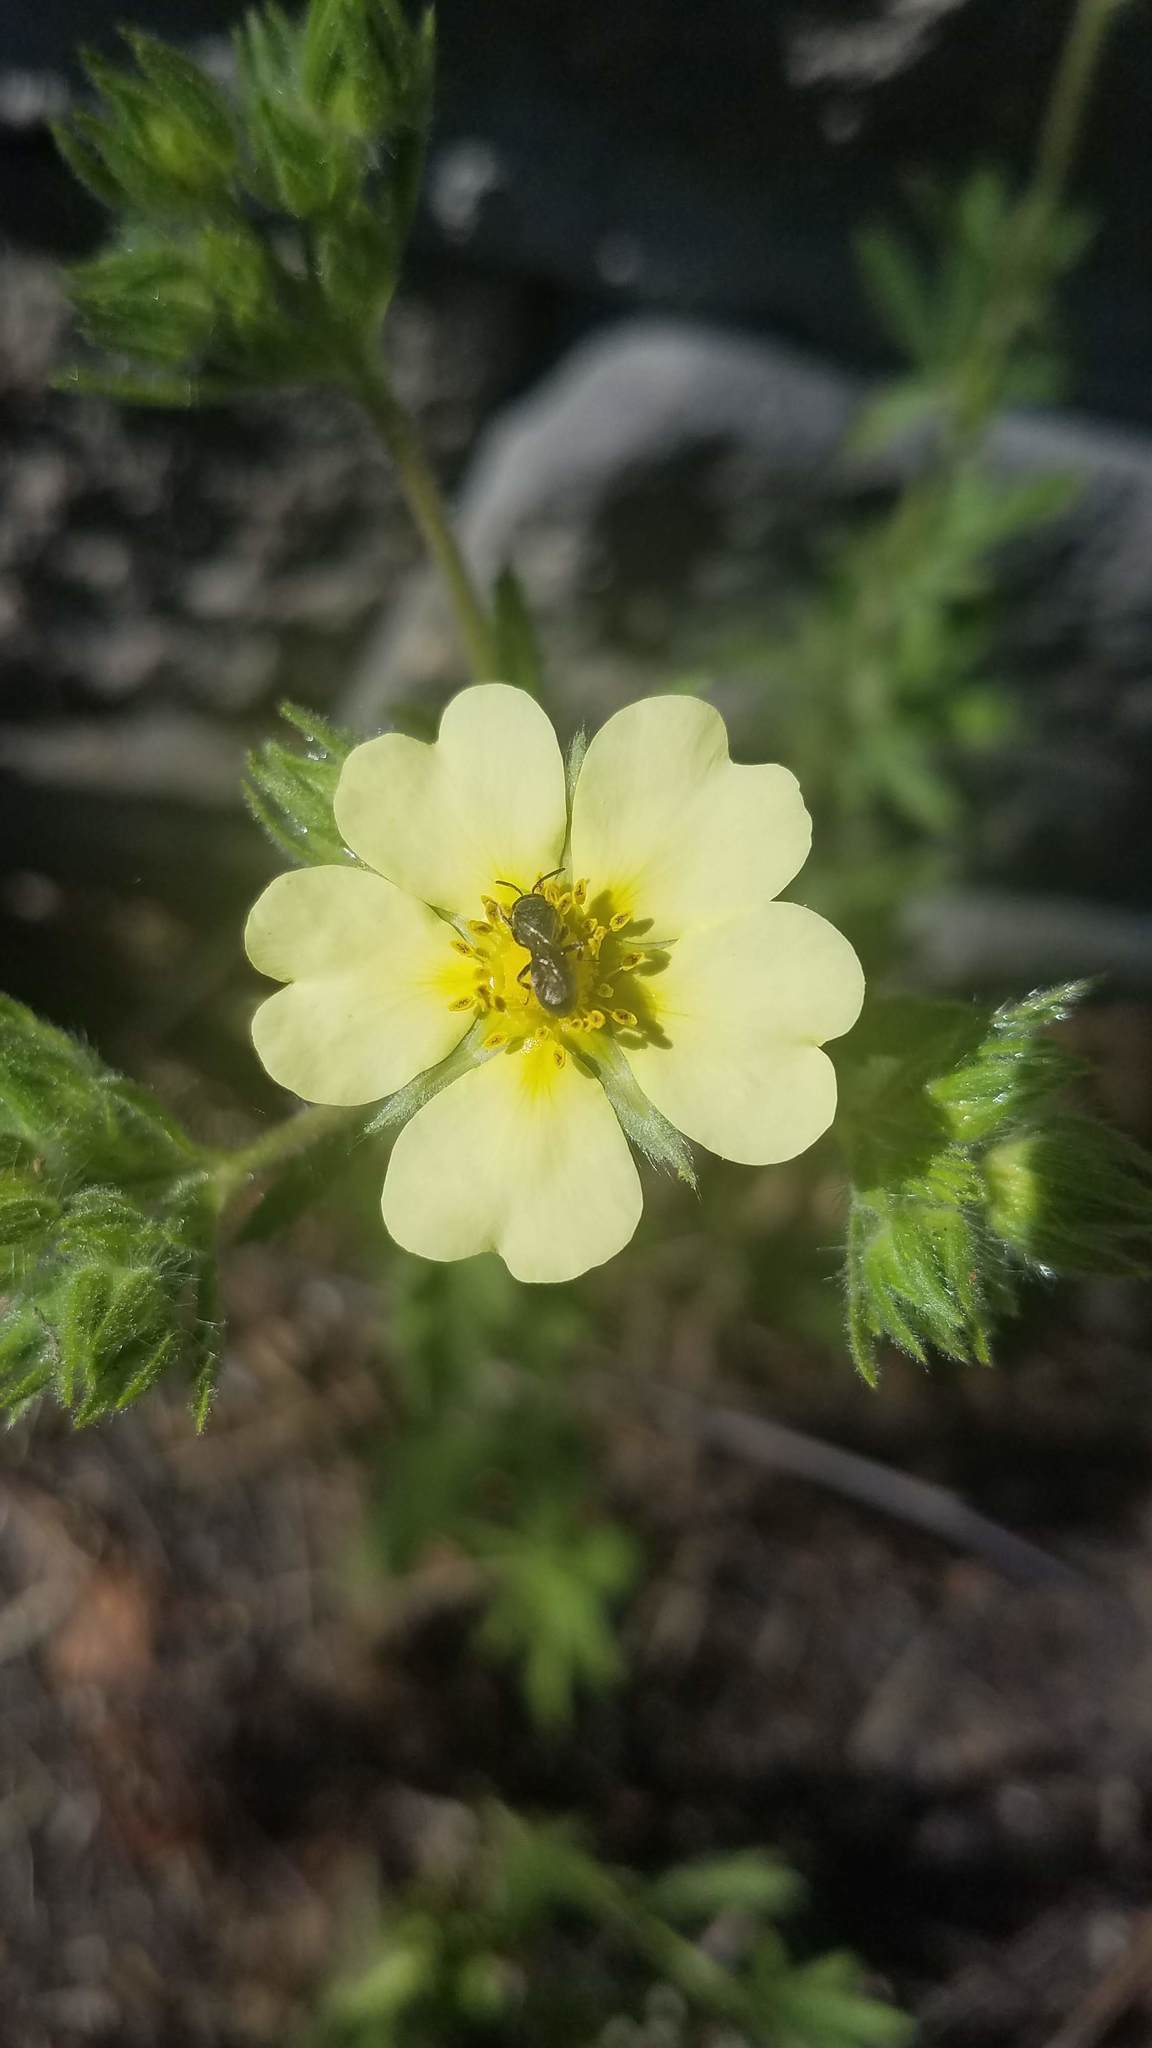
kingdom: Plantae
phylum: Tracheophyta
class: Magnoliopsida
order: Rosales
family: Rosaceae
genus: Potentilla
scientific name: Potentilla recta
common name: Sulphur cinquefoil
